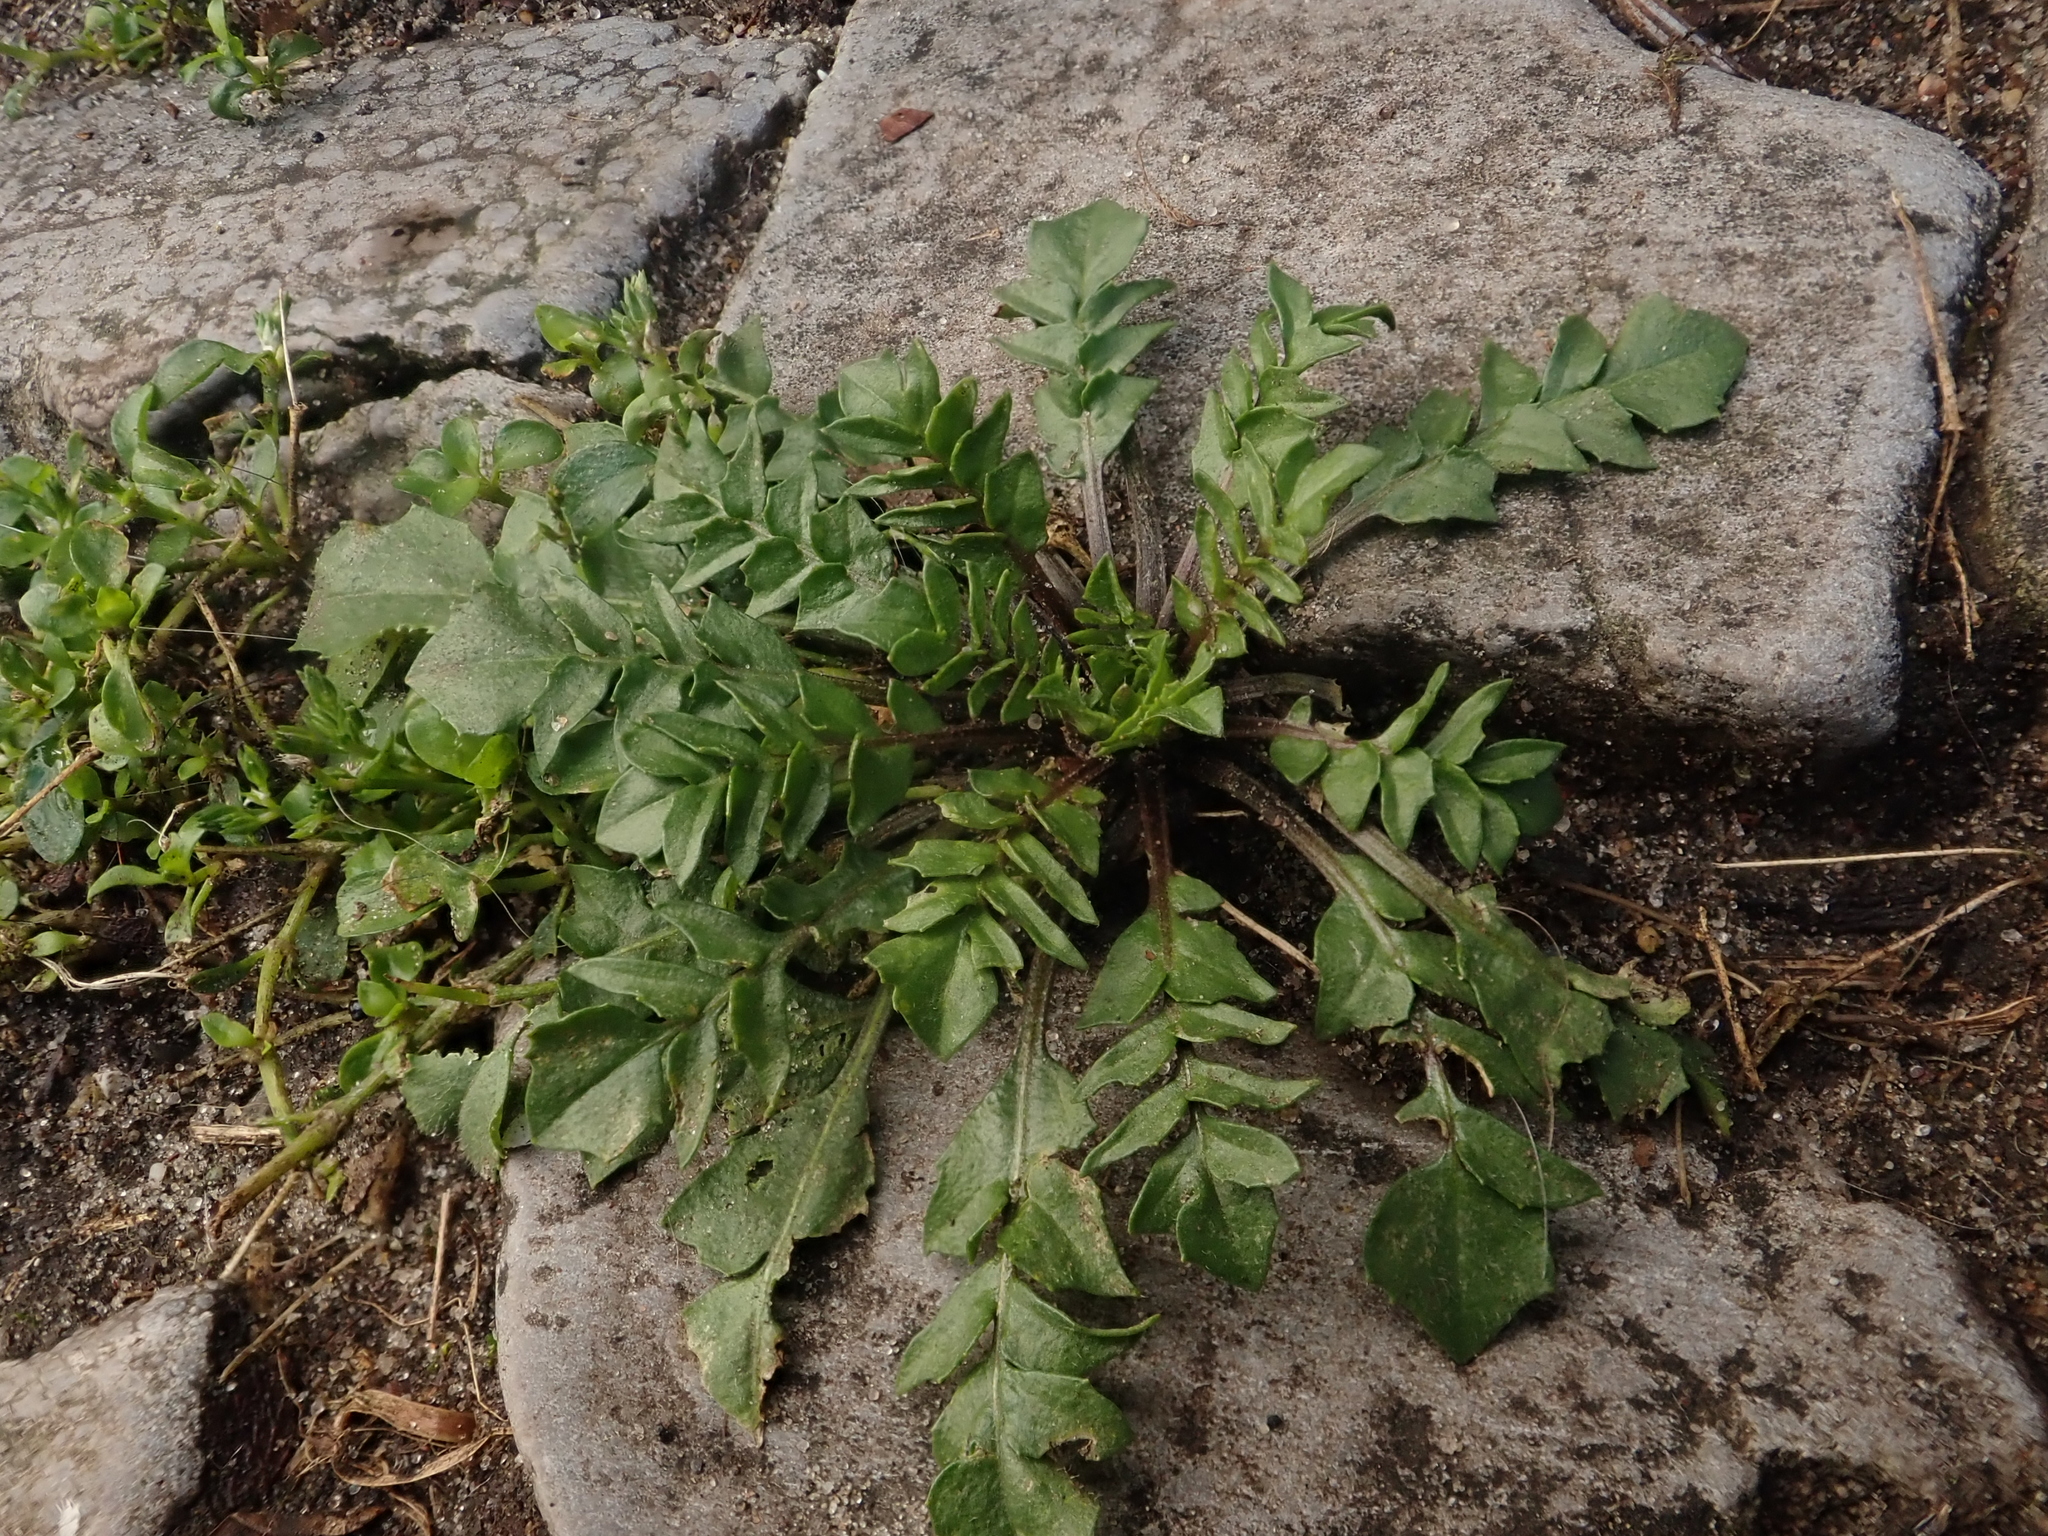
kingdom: Plantae
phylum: Tracheophyta
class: Magnoliopsida
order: Brassicales
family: Brassicaceae
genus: Capsella
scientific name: Capsella bursa-pastoris
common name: Shepherd's purse
